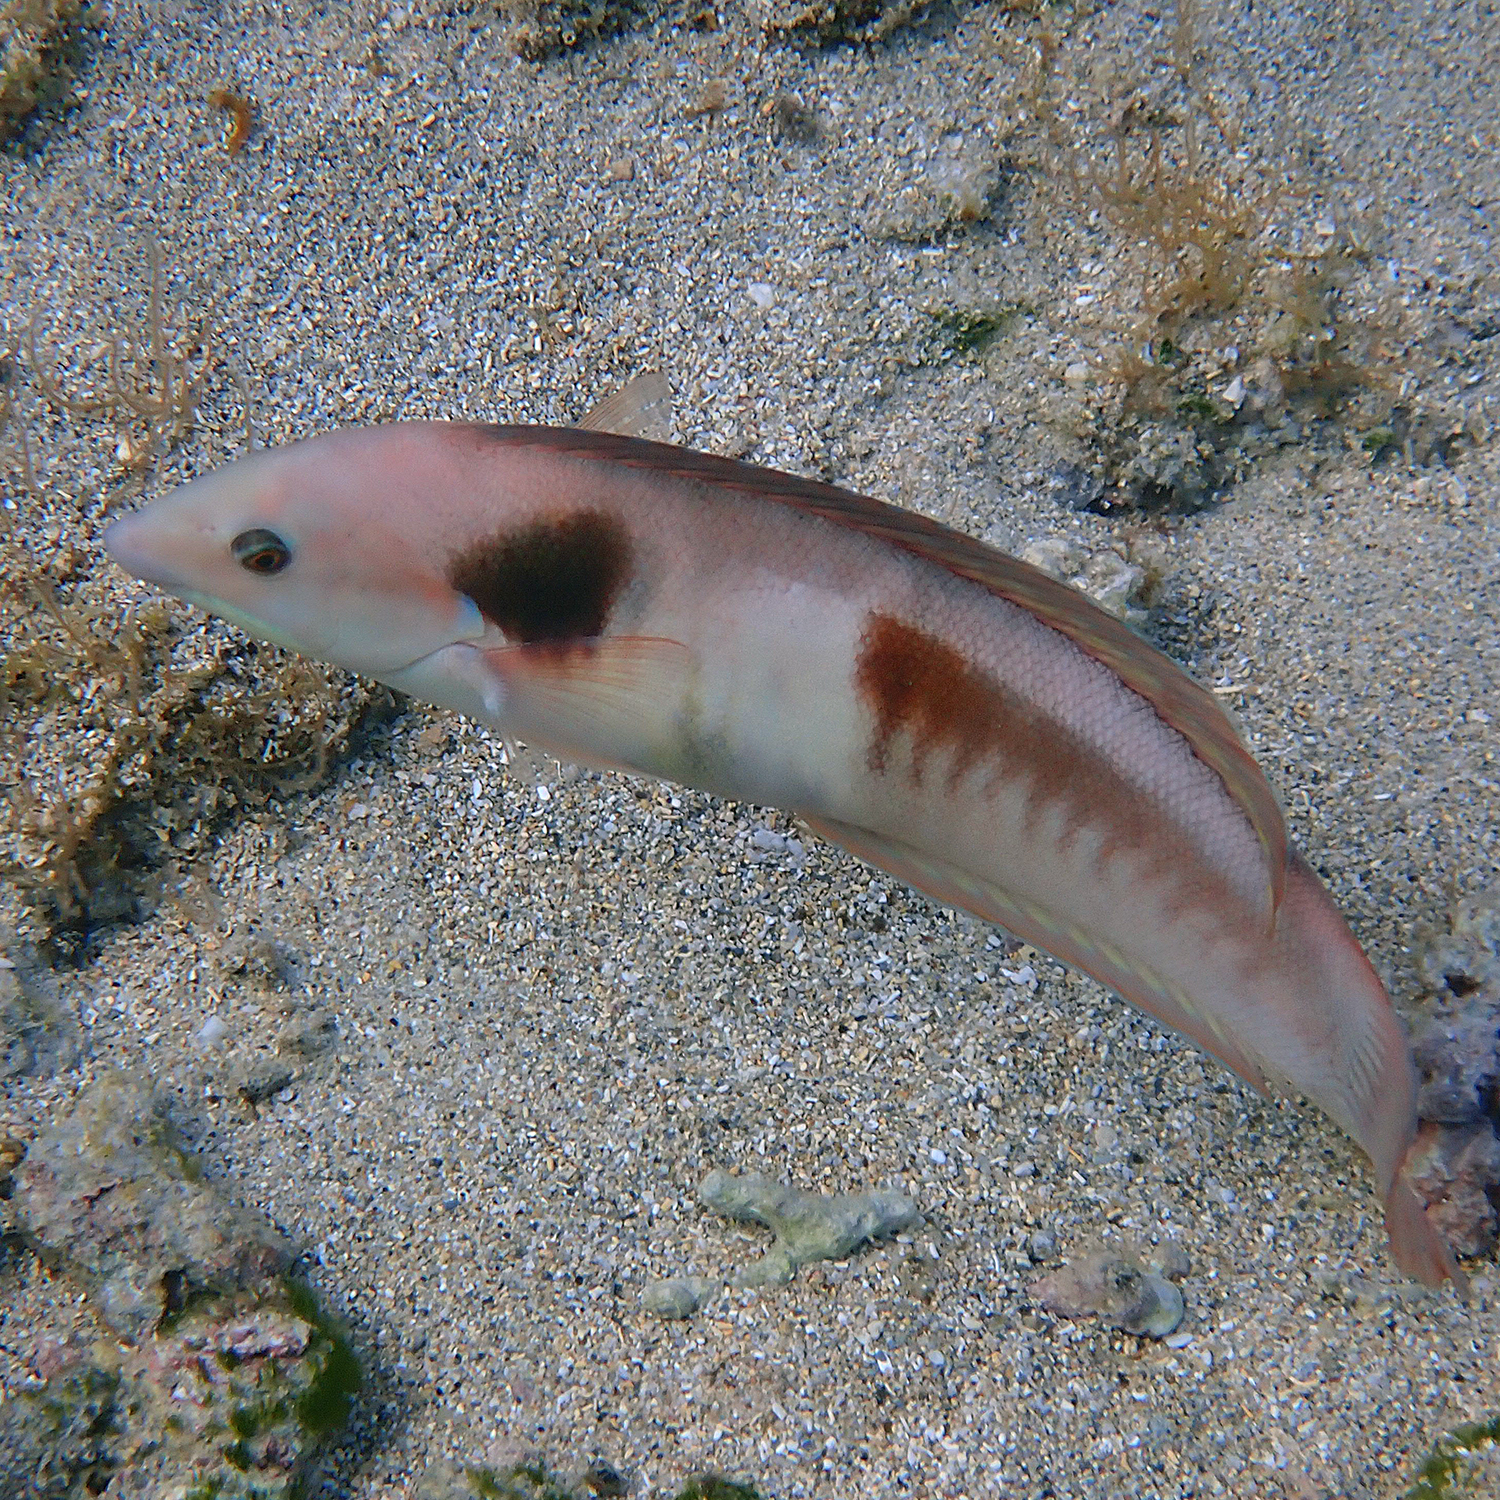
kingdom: Animalia
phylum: Chordata
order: Perciformes
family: Labridae
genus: Coris
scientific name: Coris sandeyeri
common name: Sandager's wrasse
